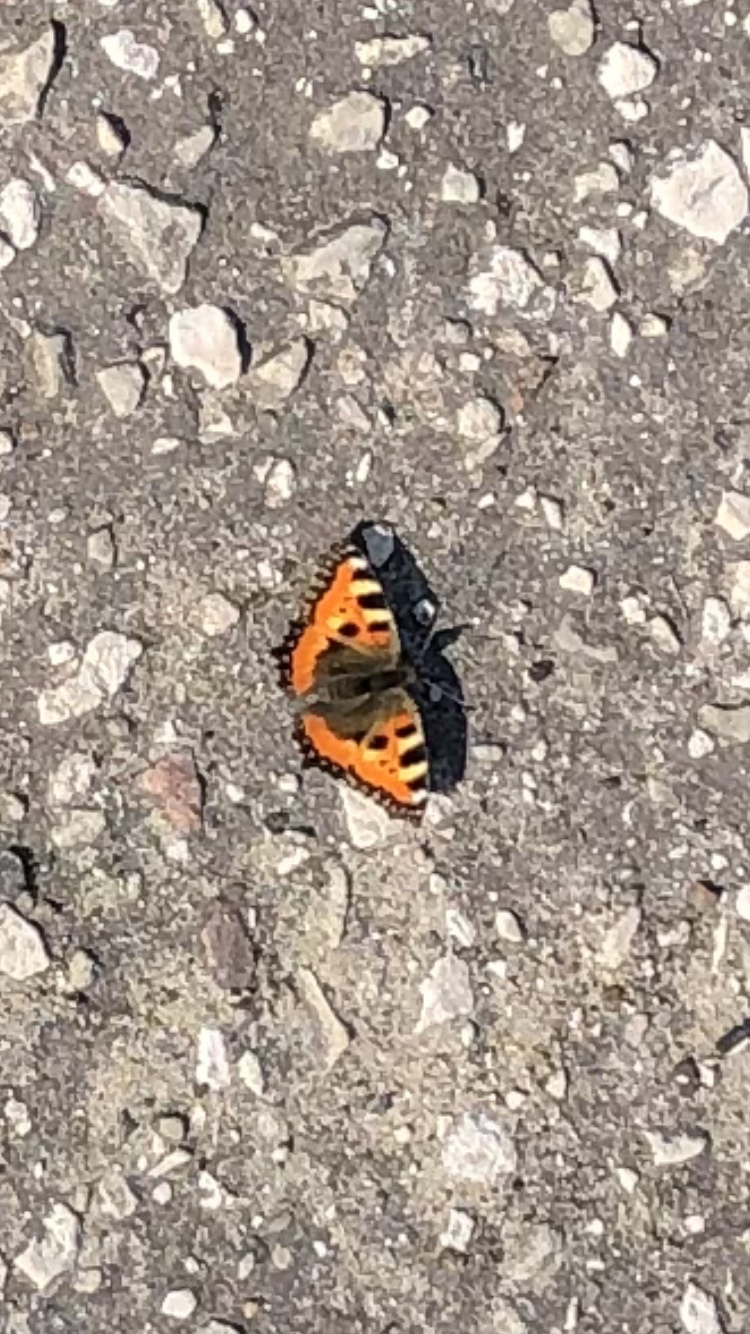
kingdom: Animalia
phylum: Arthropoda
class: Insecta
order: Lepidoptera
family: Nymphalidae
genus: Aglais
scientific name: Aglais urticae
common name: Small tortoiseshell
